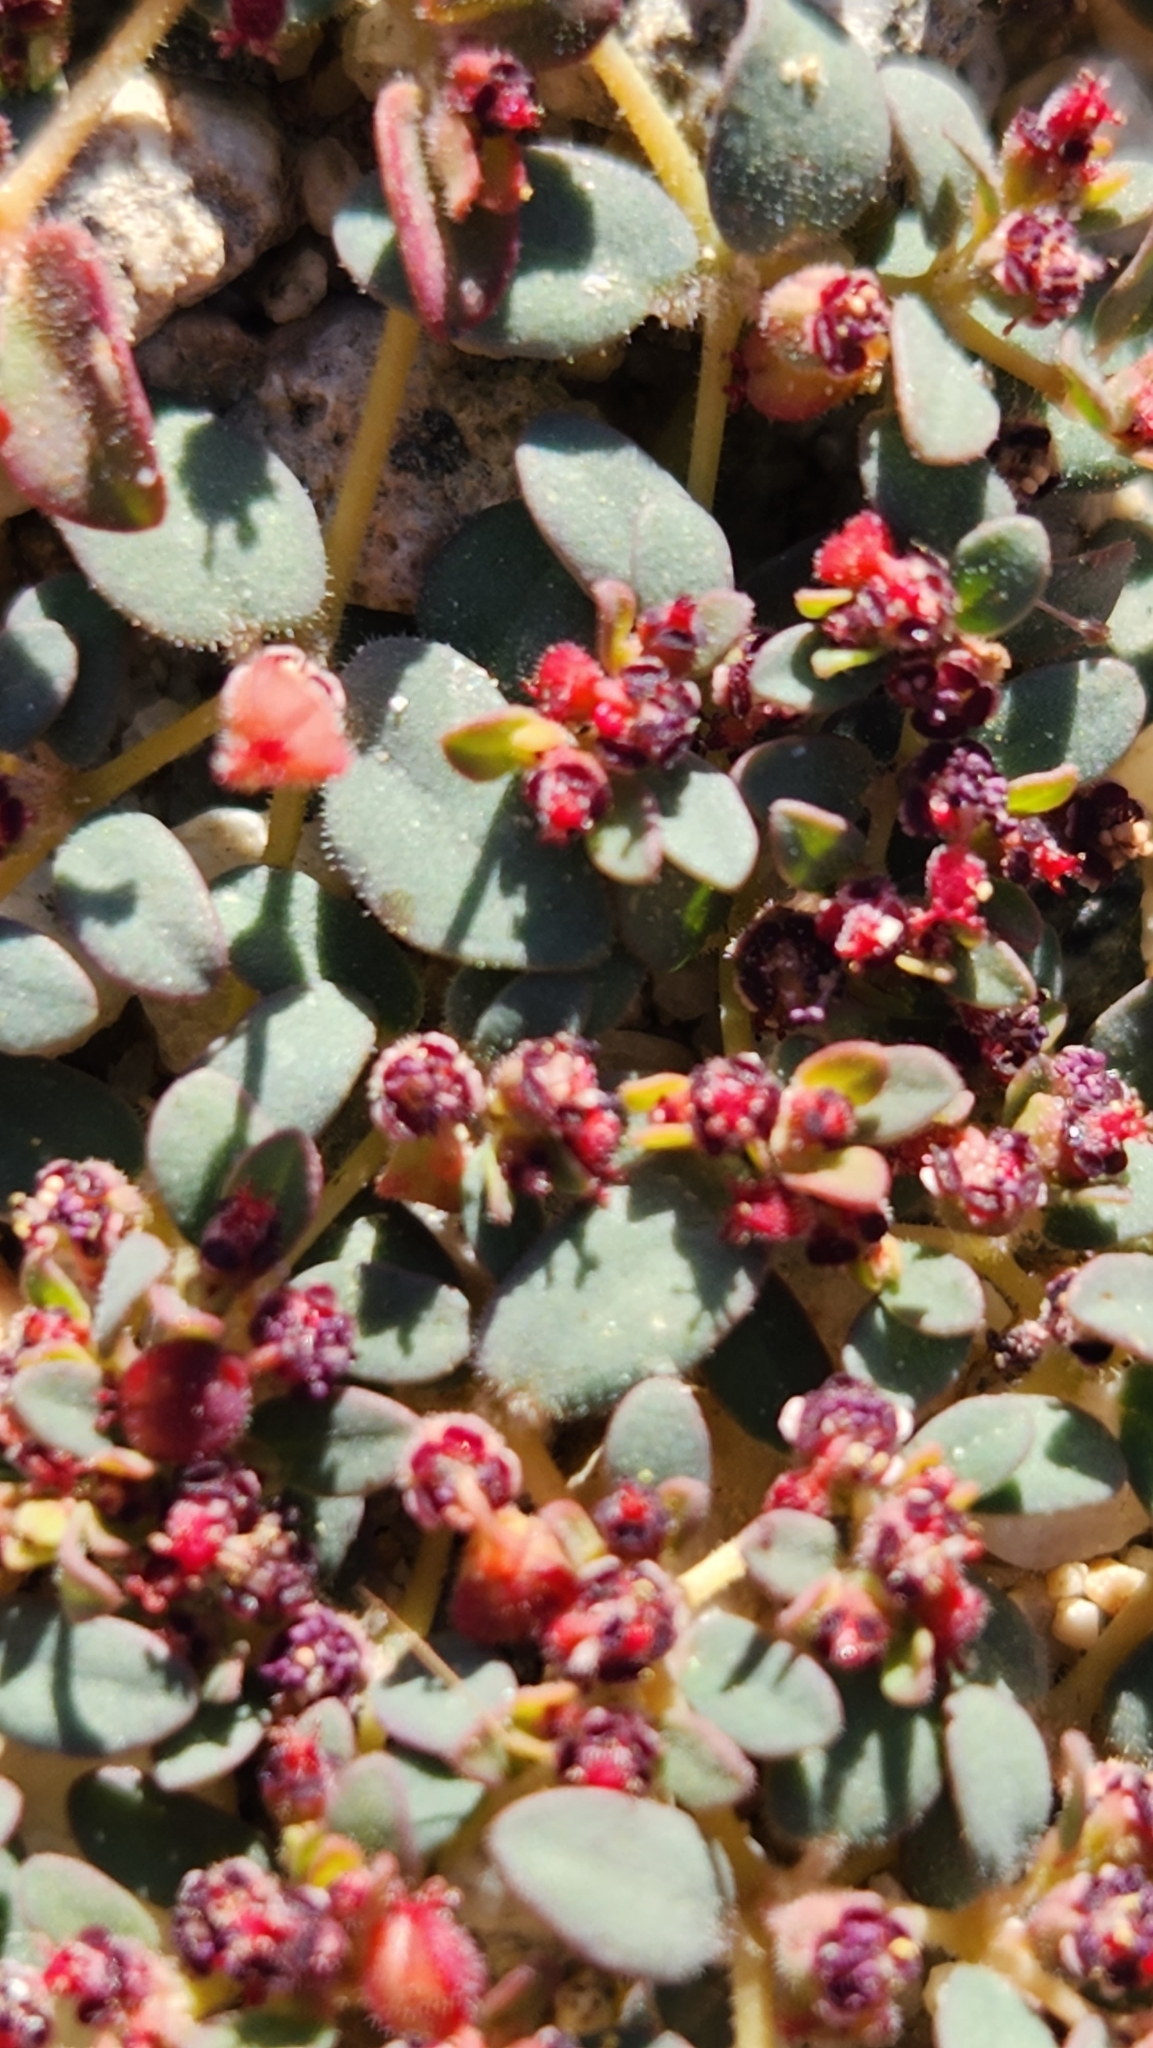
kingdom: Plantae
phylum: Tracheophyta
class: Magnoliopsida
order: Malpighiales
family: Euphorbiaceae
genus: Euphorbia
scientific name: Euphorbia polycarpa
